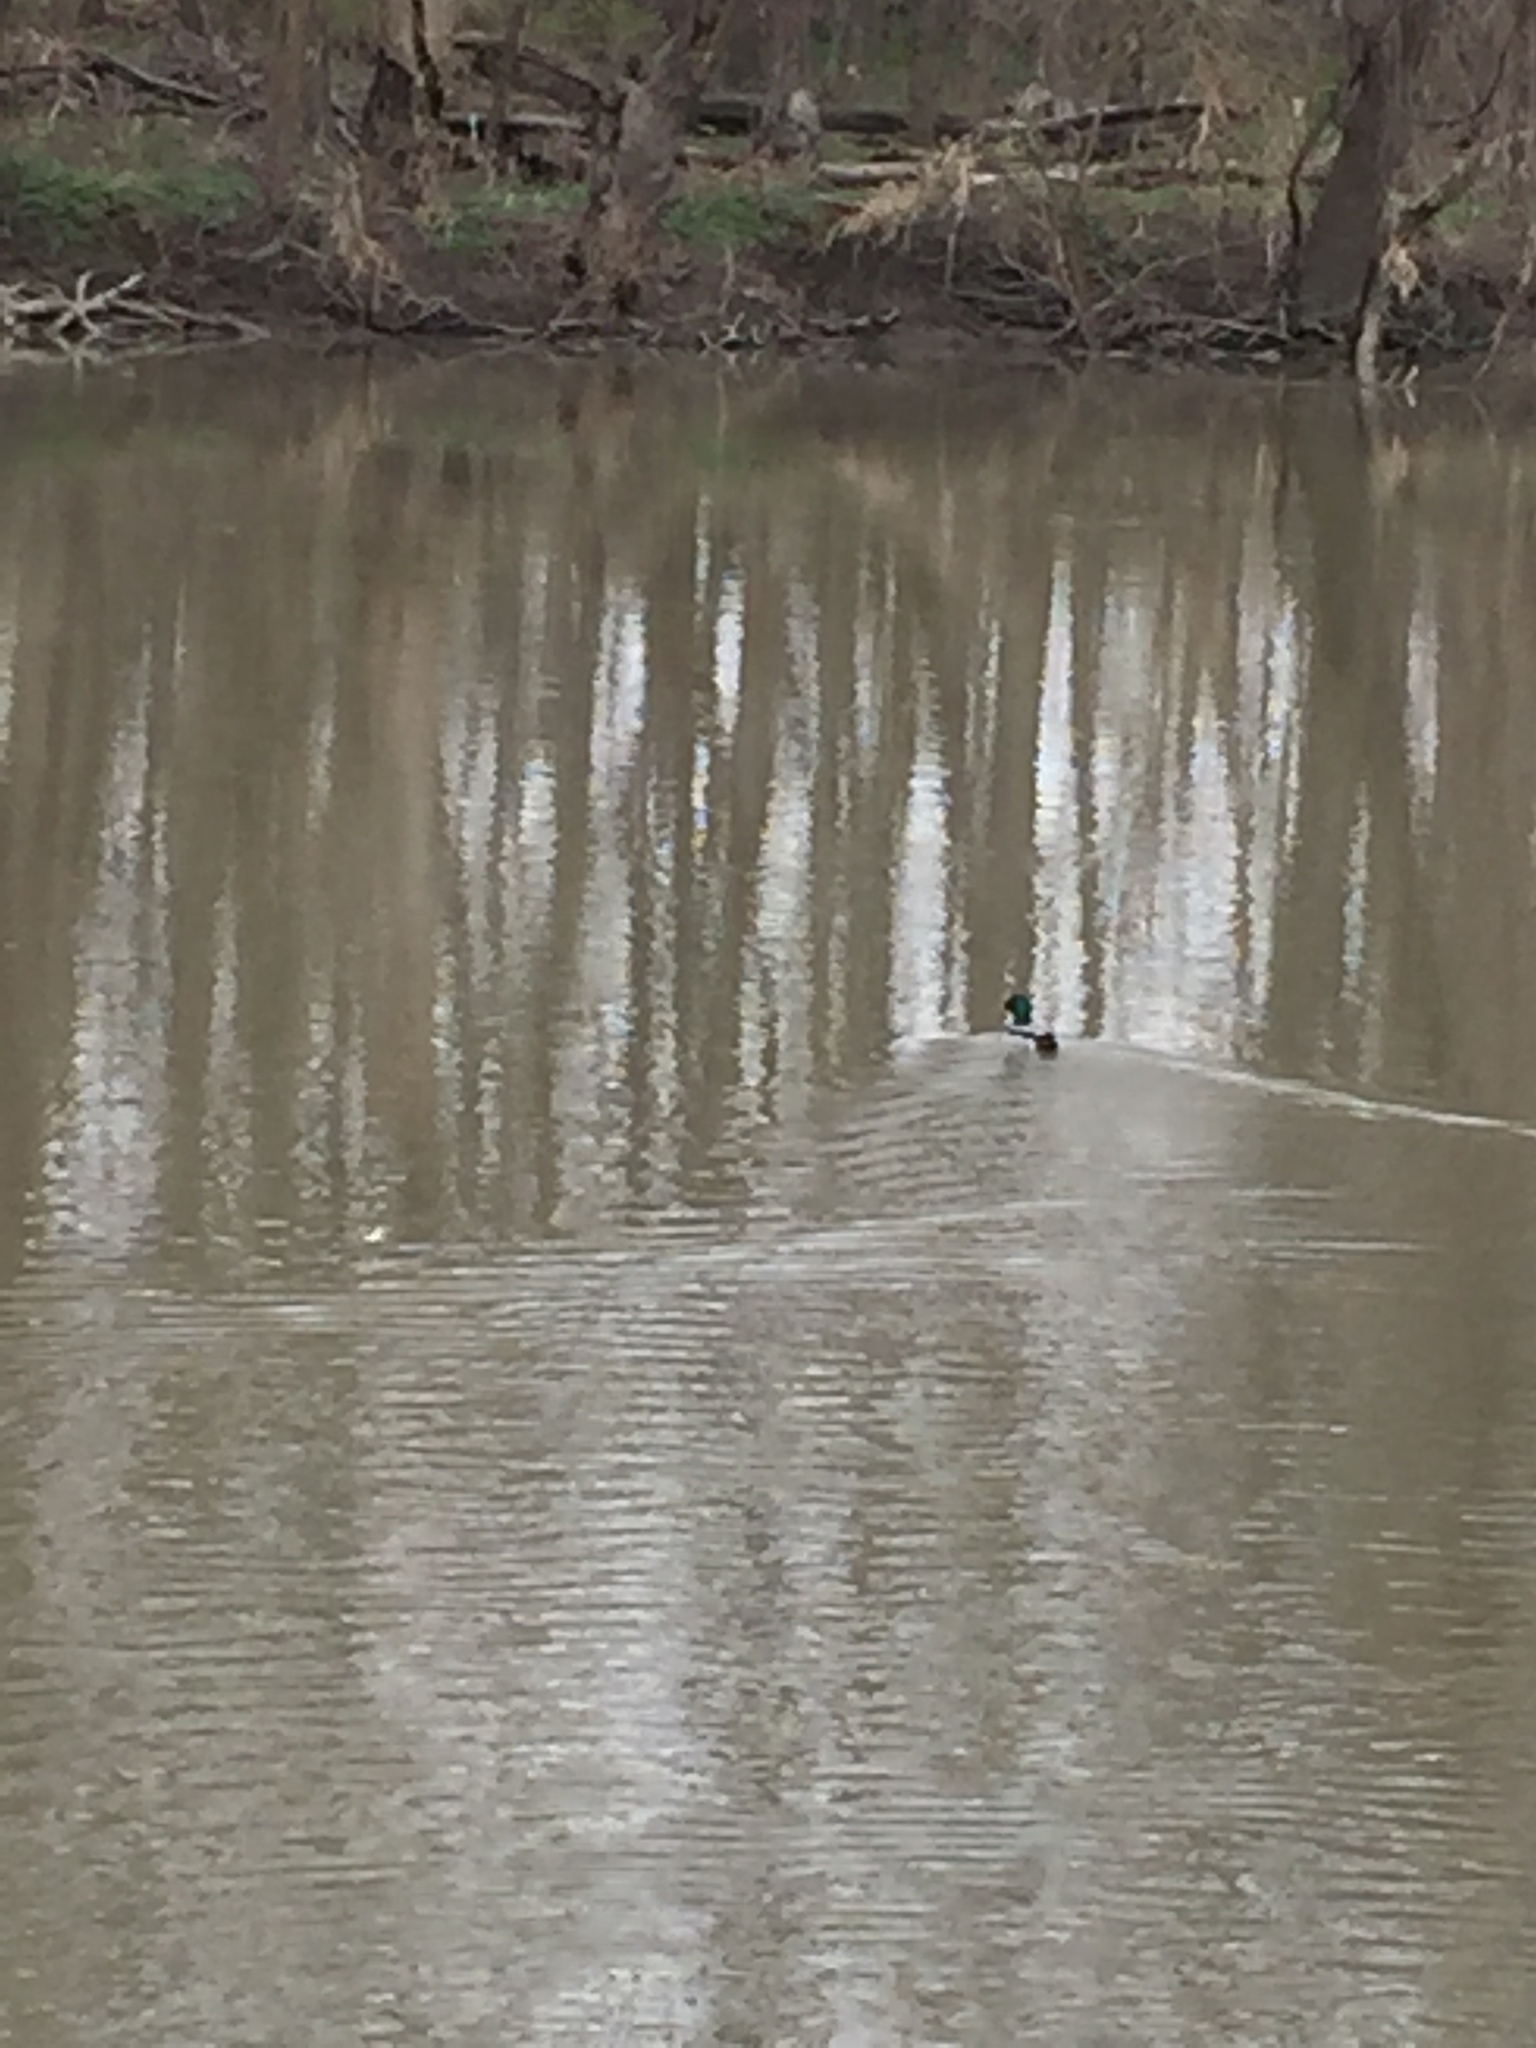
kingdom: Animalia
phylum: Chordata
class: Aves
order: Anseriformes
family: Anatidae
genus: Anas
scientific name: Anas platyrhynchos
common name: Mallard
